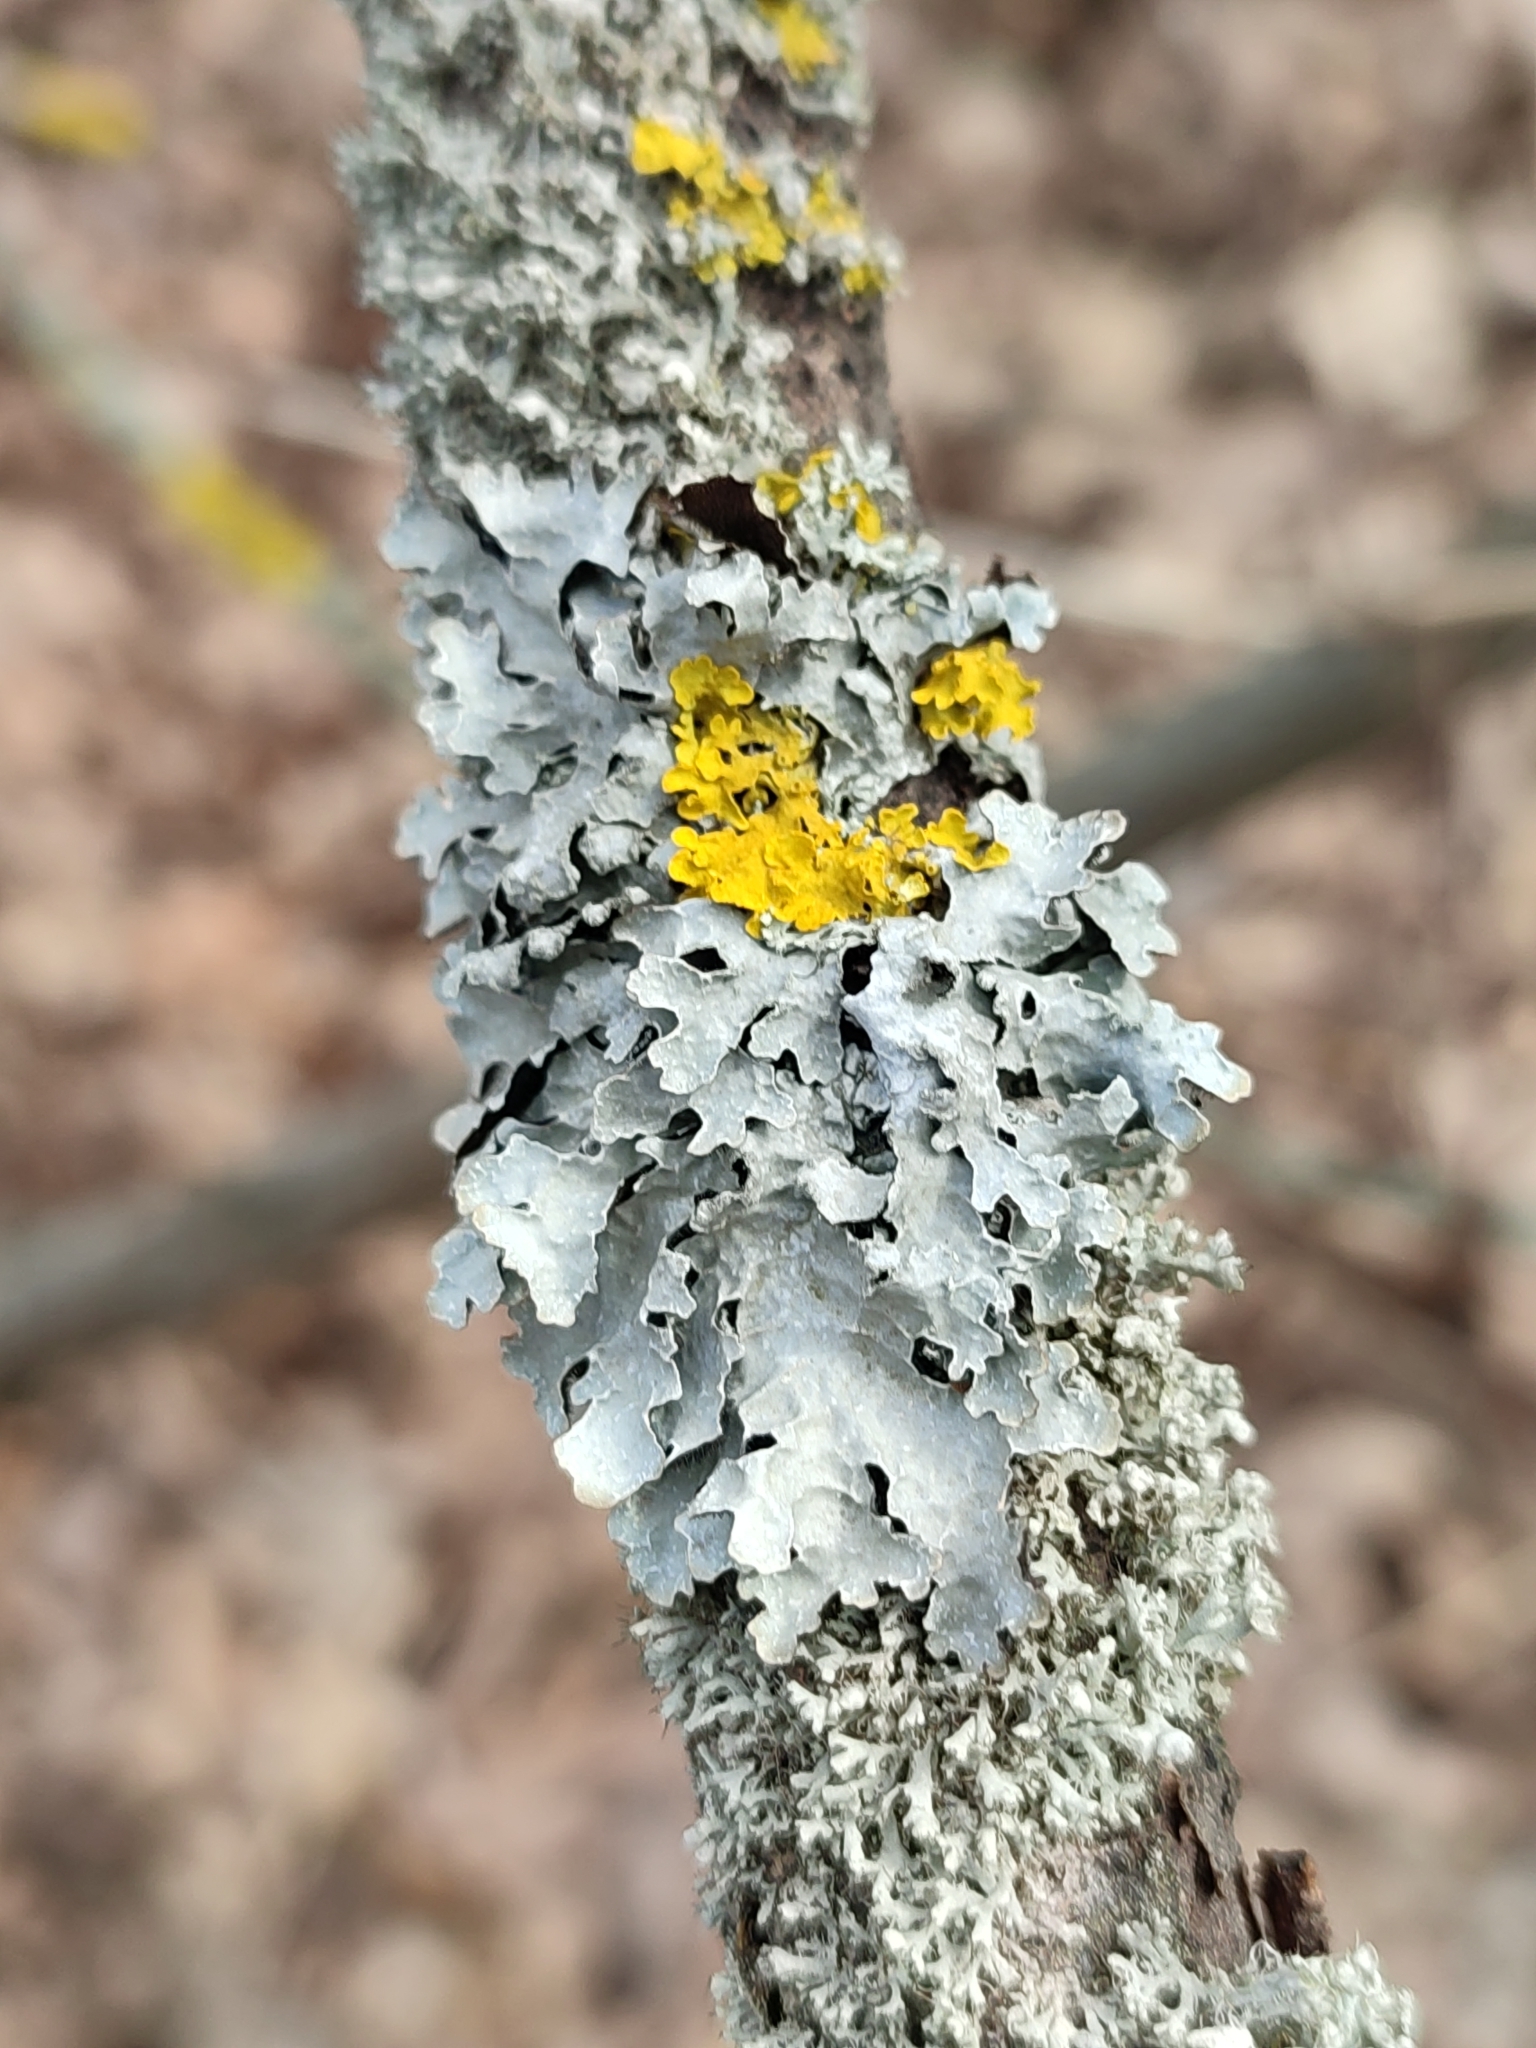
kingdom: Fungi
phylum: Ascomycota
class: Lecanoromycetes
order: Lecanorales
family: Parmeliaceae
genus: Parmelia
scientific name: Parmelia sulcata
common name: Netted shield lichen
